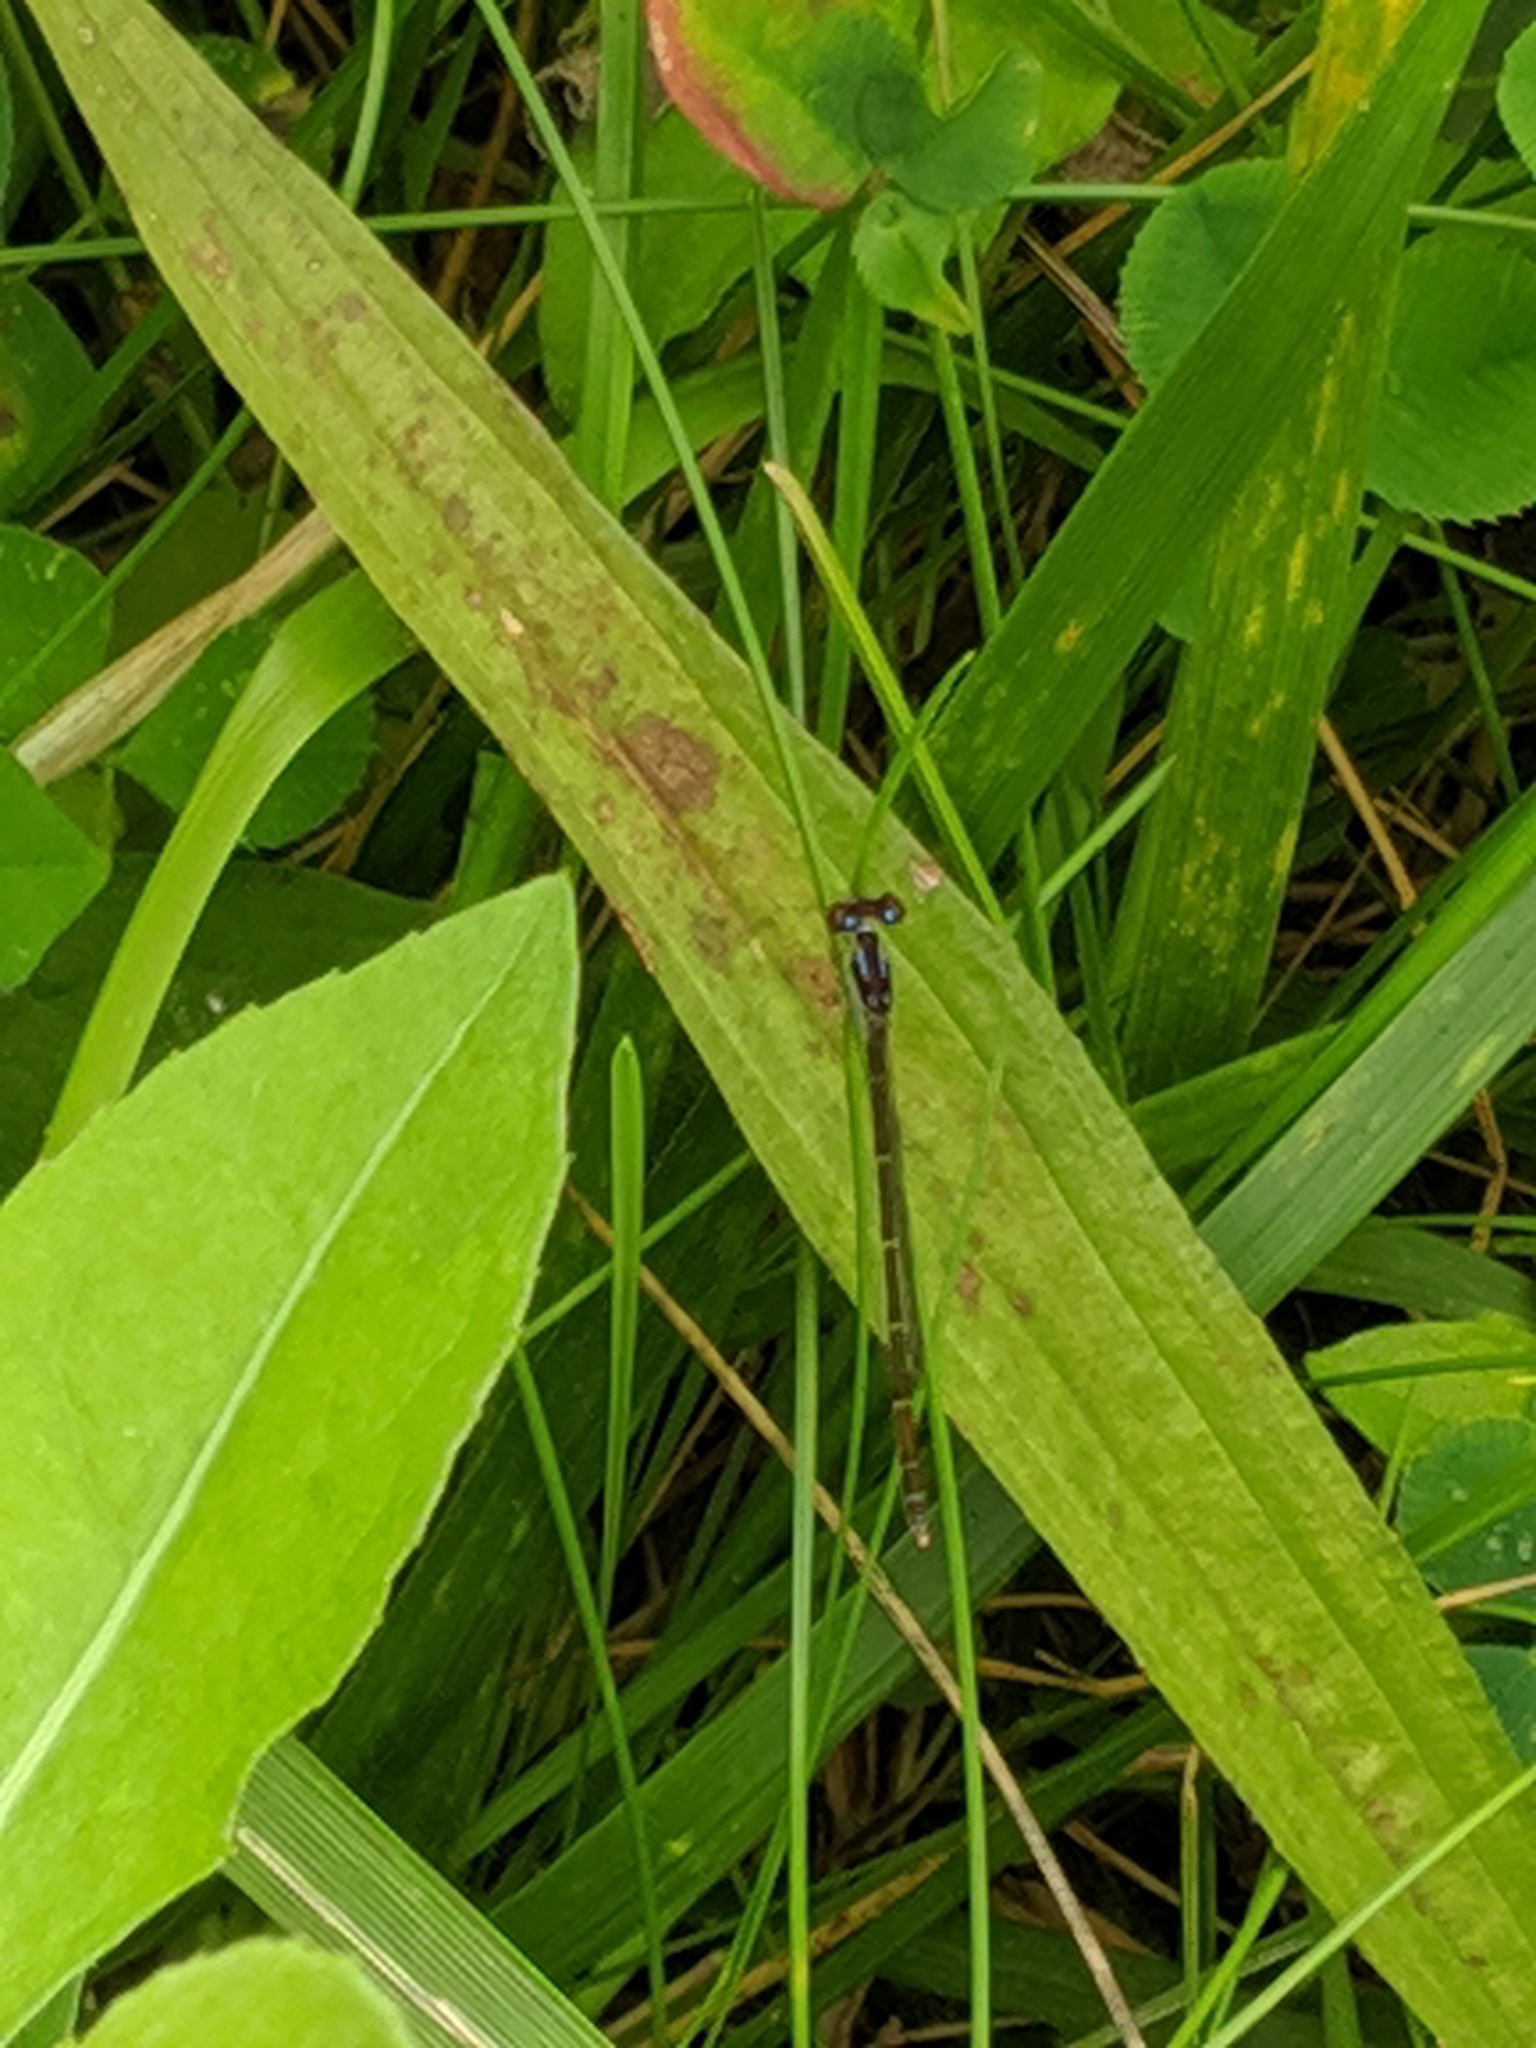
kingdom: Animalia
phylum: Arthropoda
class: Insecta
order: Odonata
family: Coenagrionidae
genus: Ischnura
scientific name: Ischnura posita
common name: Fragile forktail
